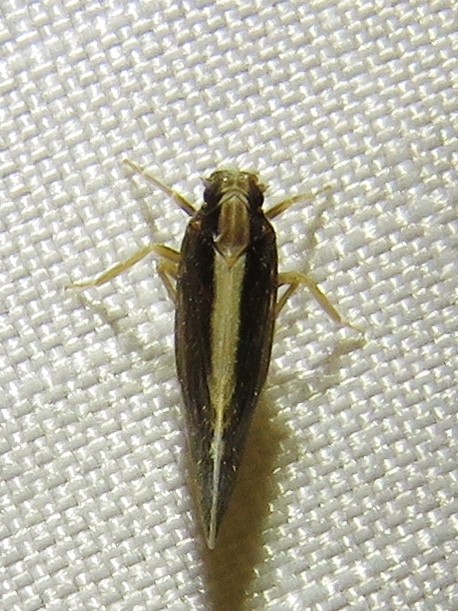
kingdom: Animalia
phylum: Arthropoda
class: Insecta
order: Hemiptera
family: Cixiidae
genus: Pintalia
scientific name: Pintalia delicata
